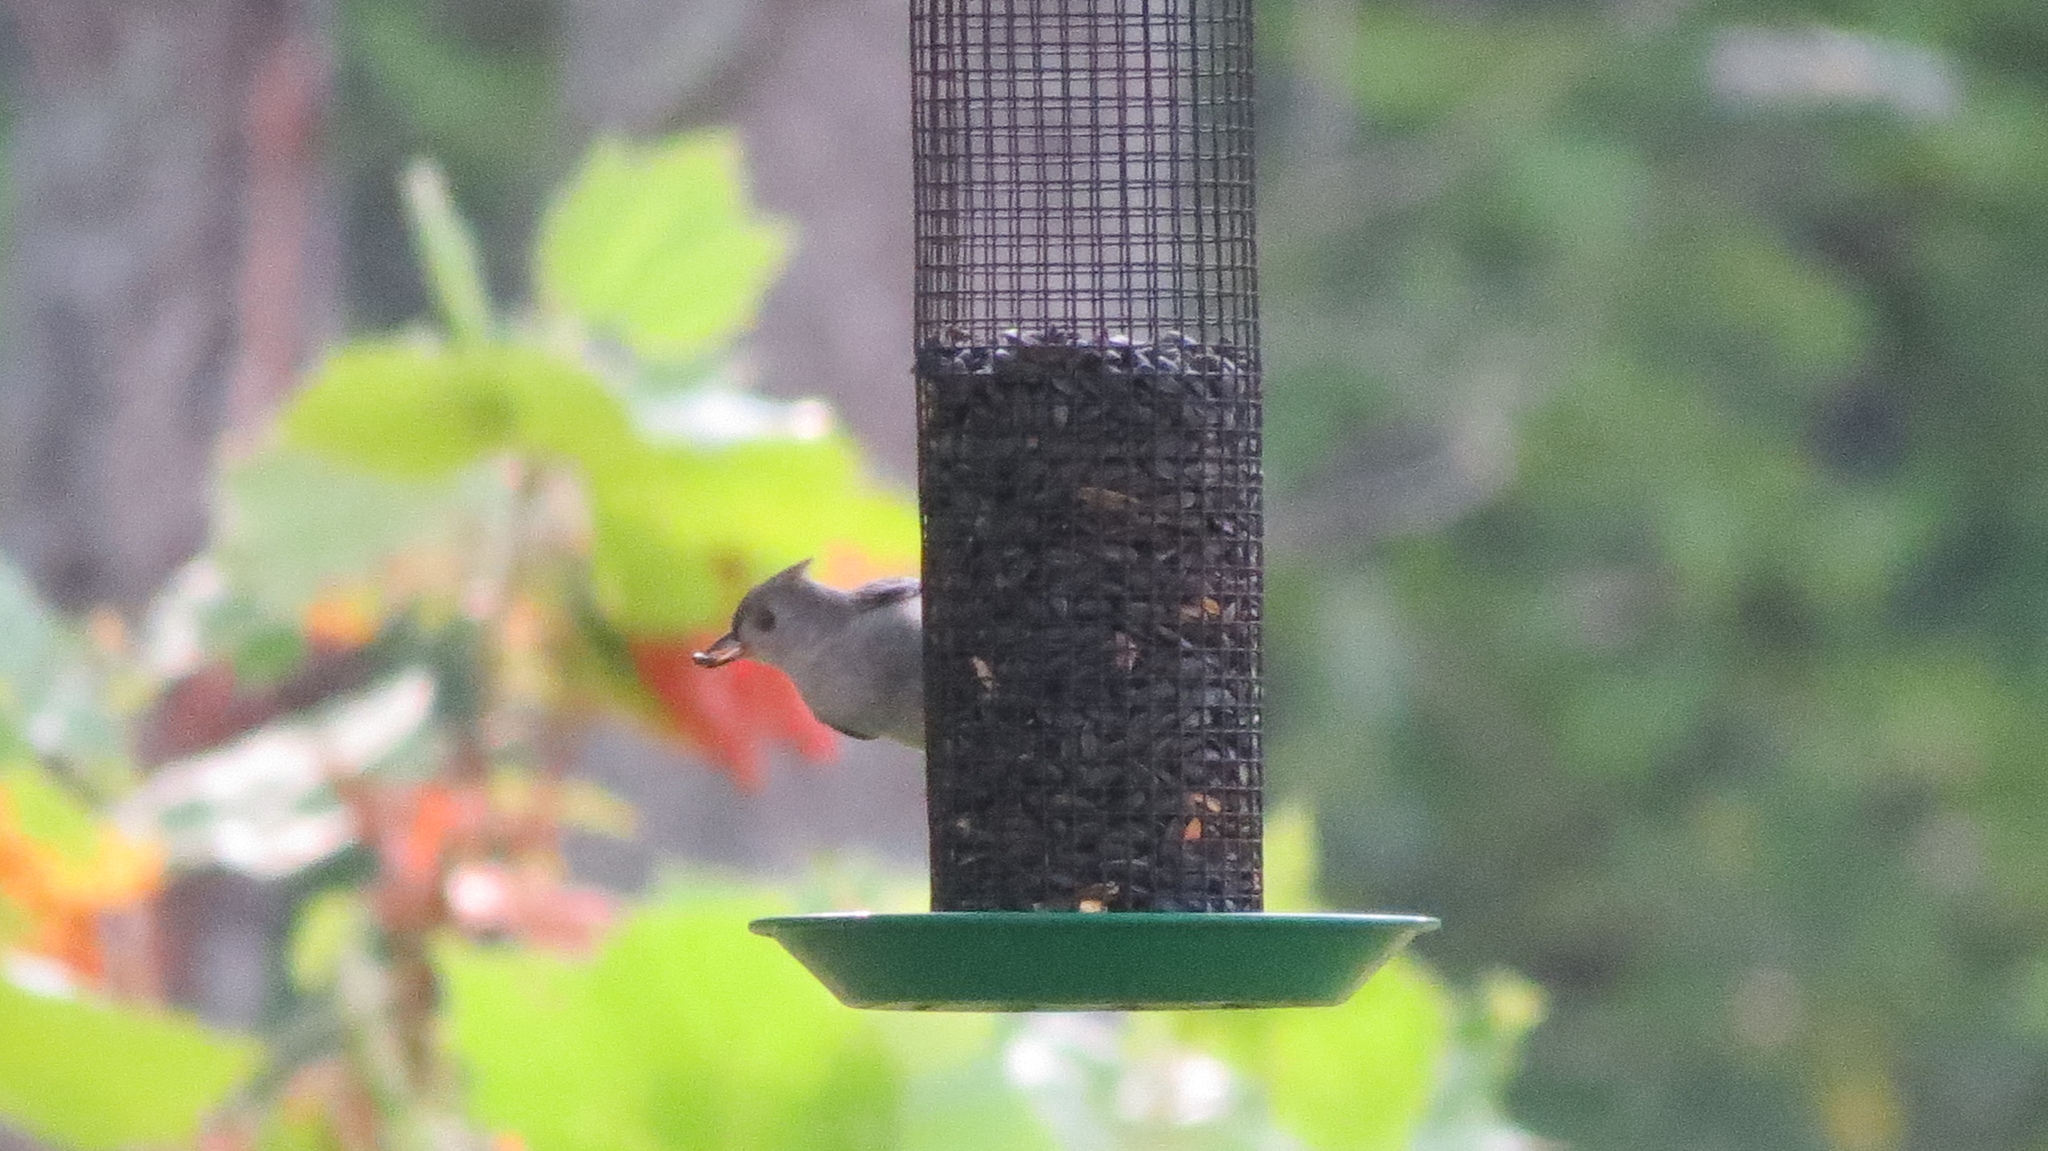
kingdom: Animalia
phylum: Chordata
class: Aves
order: Passeriformes
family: Paridae
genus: Baeolophus
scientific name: Baeolophus bicolor
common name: Tufted titmouse
